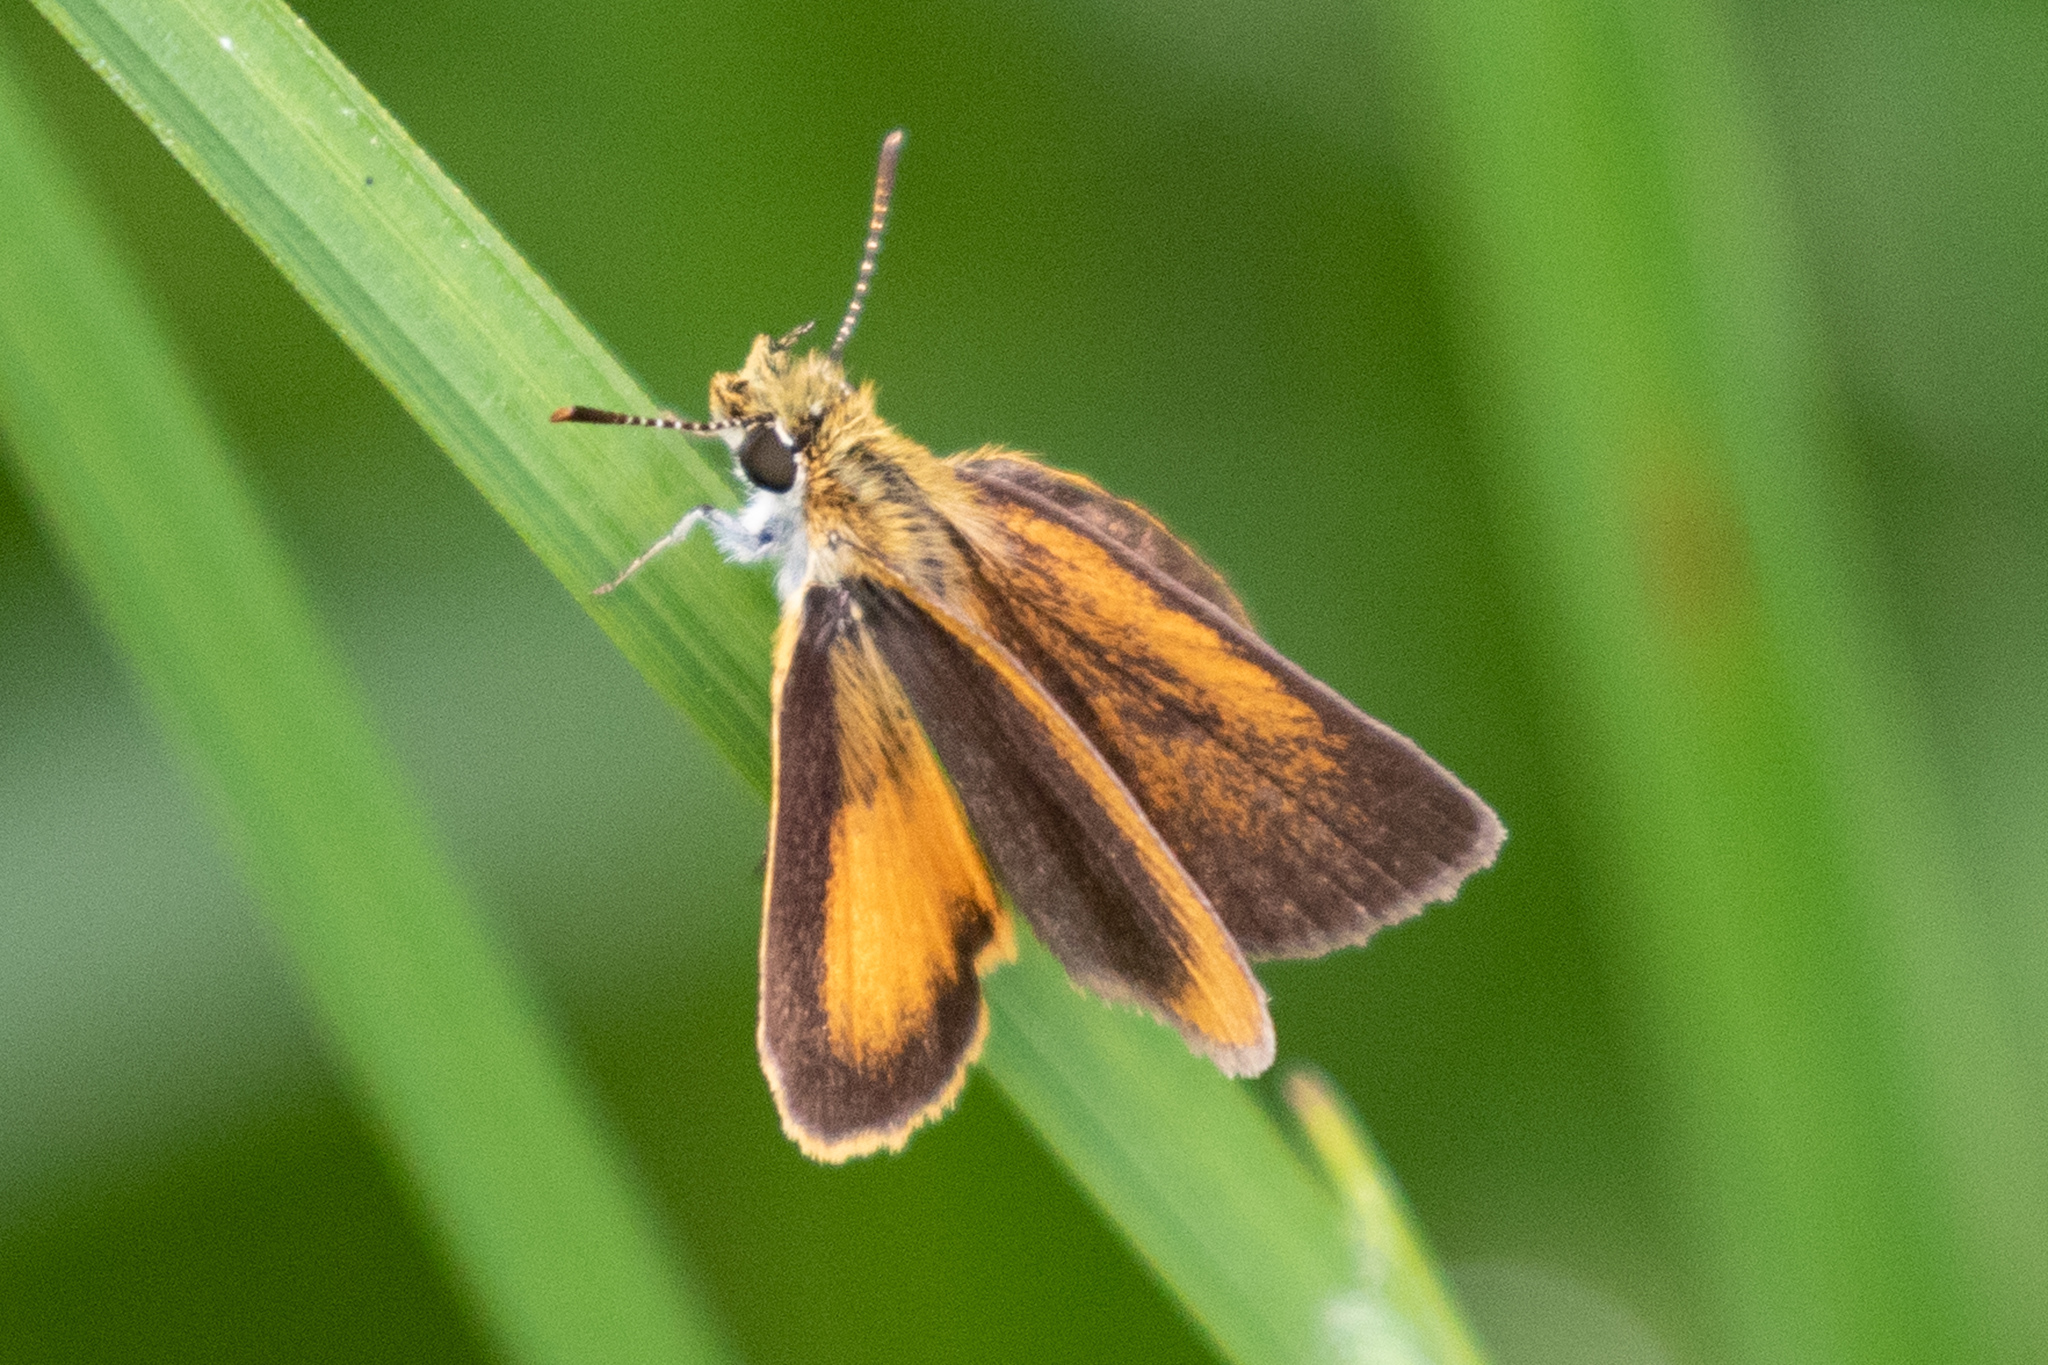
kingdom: Animalia
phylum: Arthropoda
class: Insecta
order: Lepidoptera
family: Hesperiidae
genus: Ancyloxypha
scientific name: Ancyloxypha numitor
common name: Least skipper
